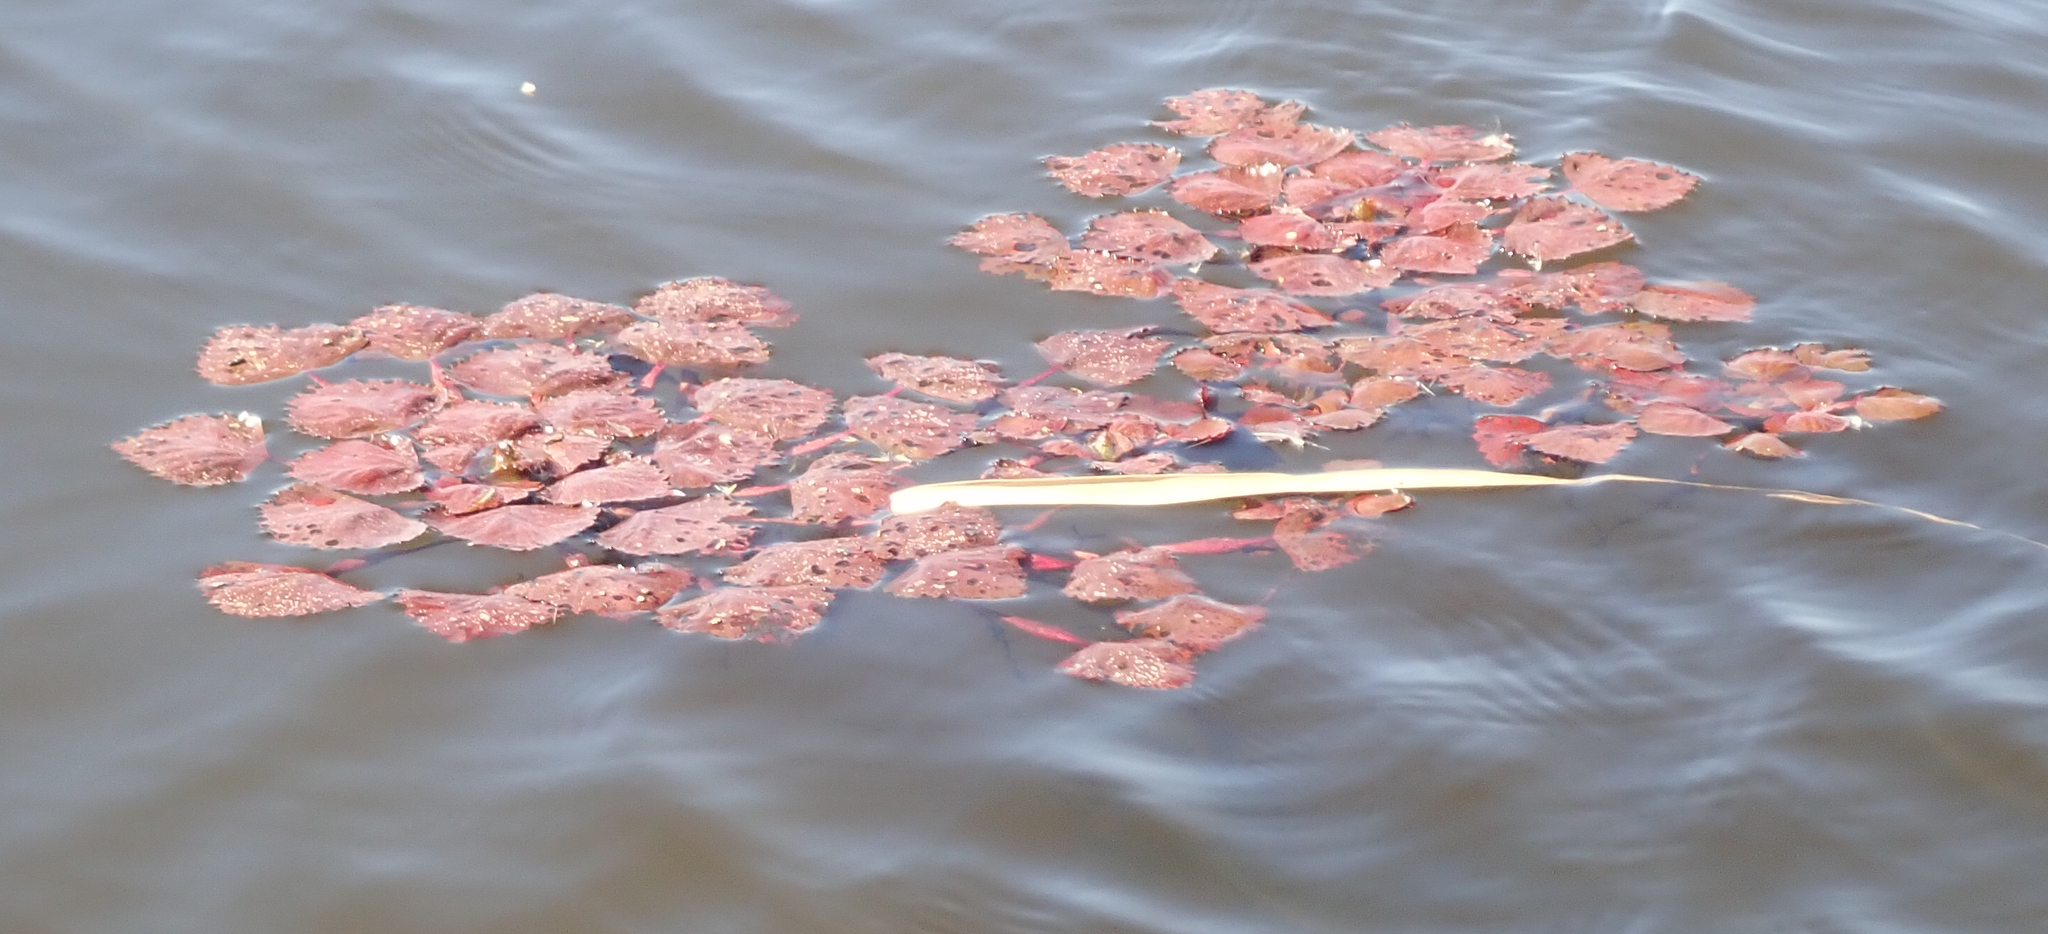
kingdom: Plantae
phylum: Tracheophyta
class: Magnoliopsida
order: Myrtales
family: Lythraceae
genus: Trapa
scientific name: Trapa natans
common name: Water chestnut
